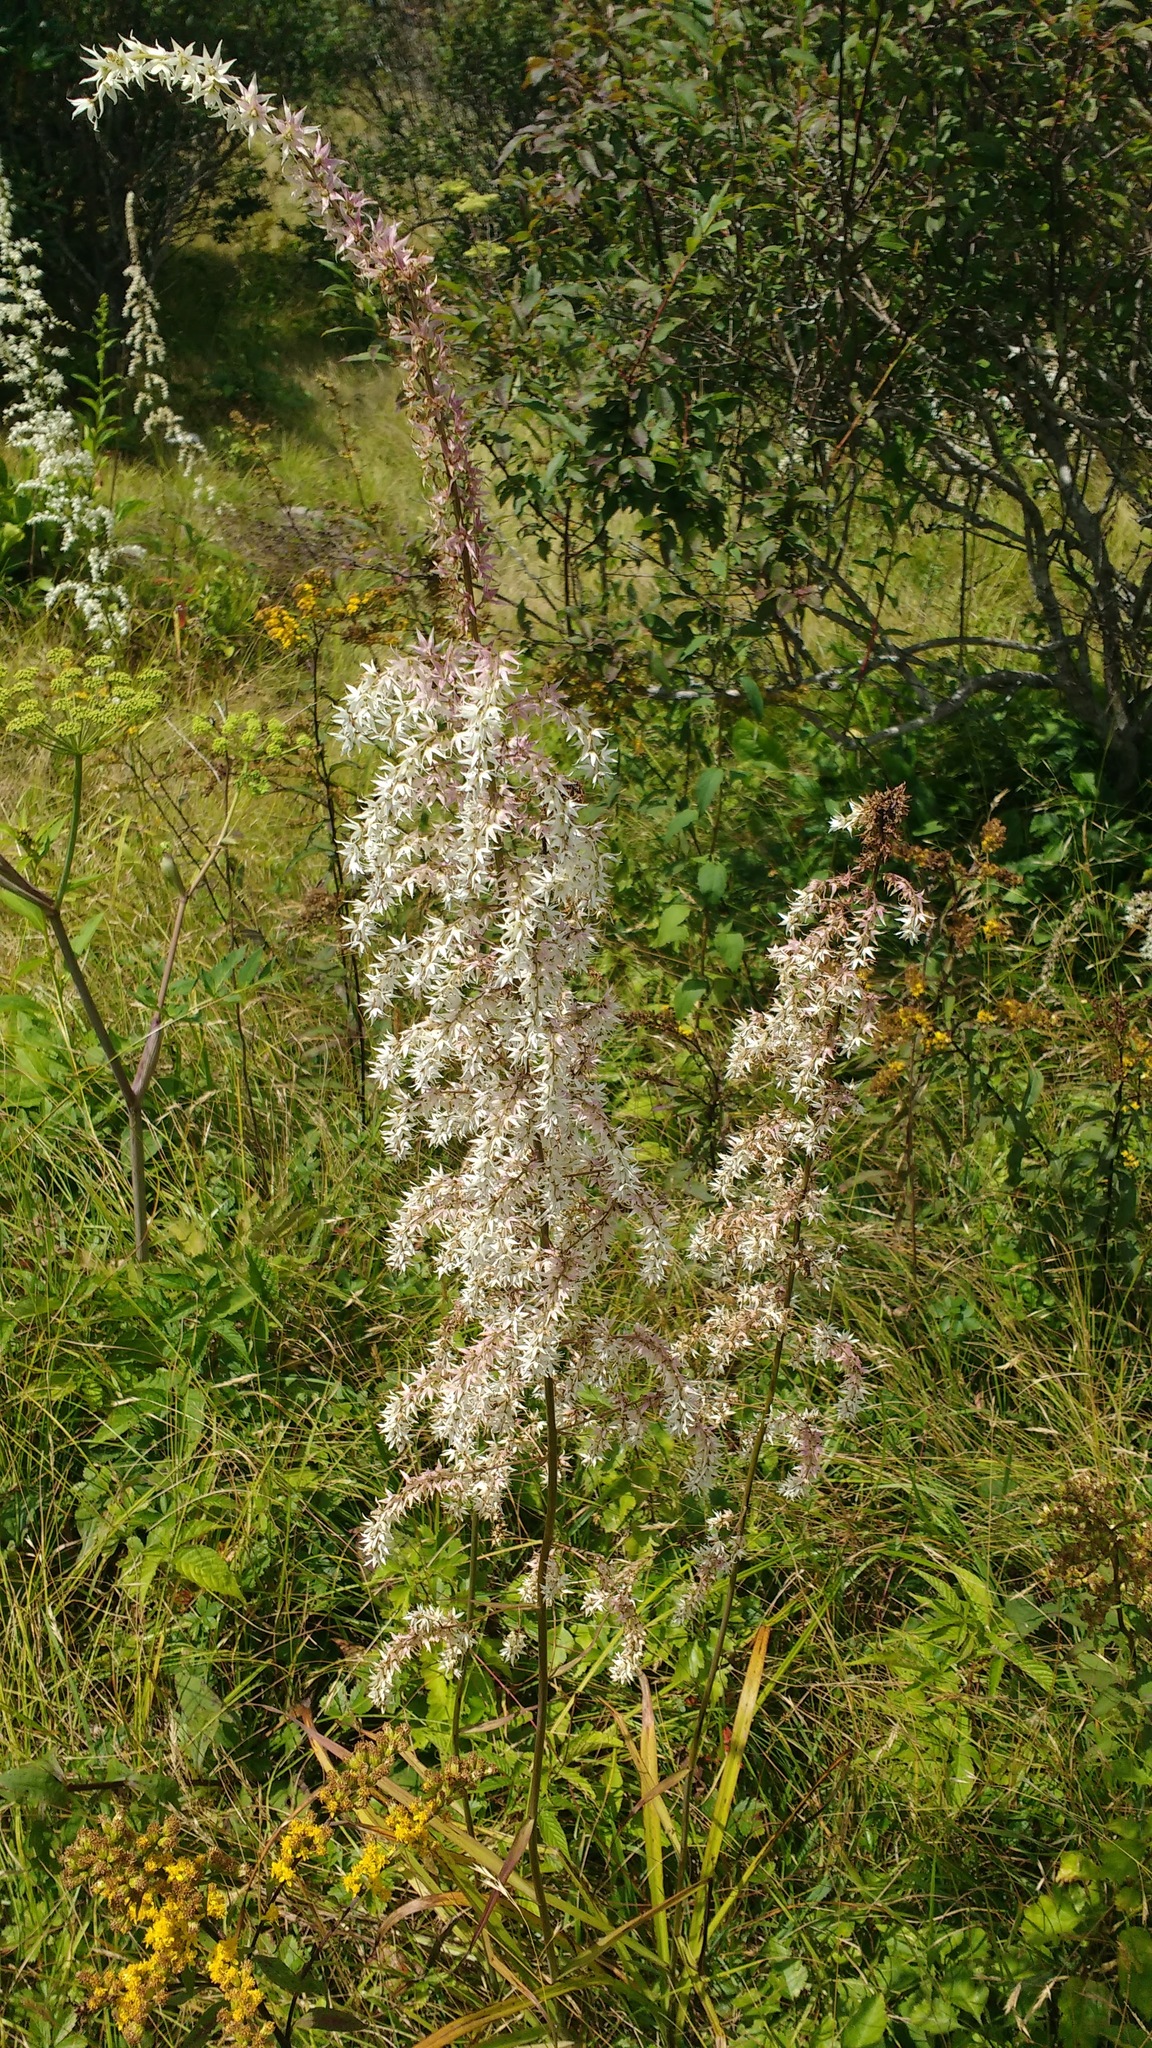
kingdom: Plantae
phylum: Tracheophyta
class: Liliopsida
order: Liliales
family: Melanthiaceae
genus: Stenanthium
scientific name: Stenanthium gramineum
